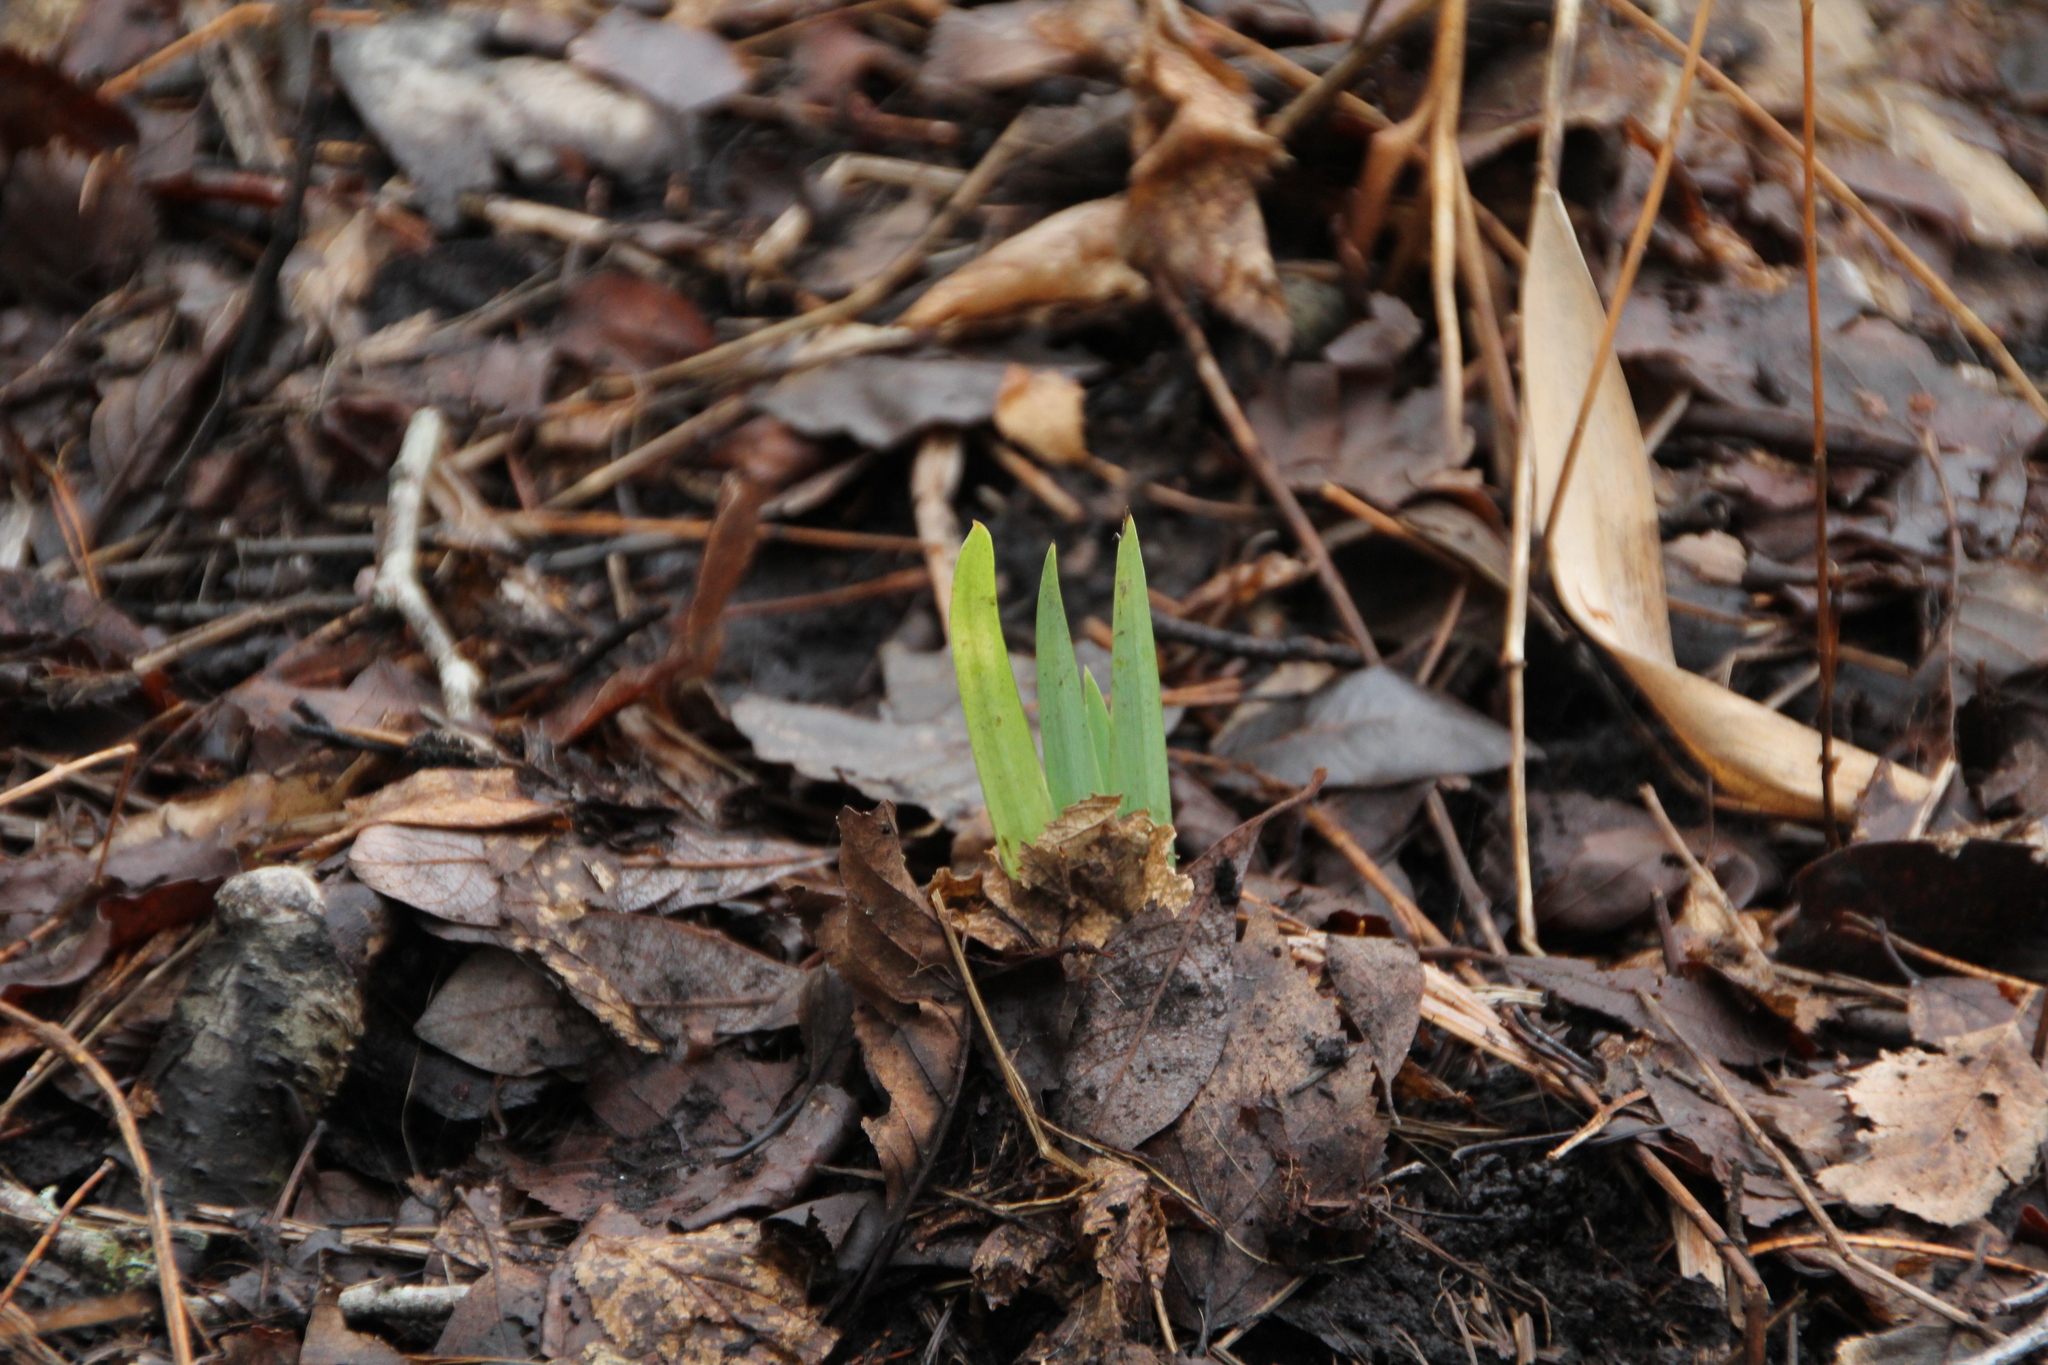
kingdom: Plantae
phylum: Tracheophyta
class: Liliopsida
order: Asparagales
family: Iridaceae
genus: Iris
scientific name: Iris pseudacorus
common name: Yellow flag
